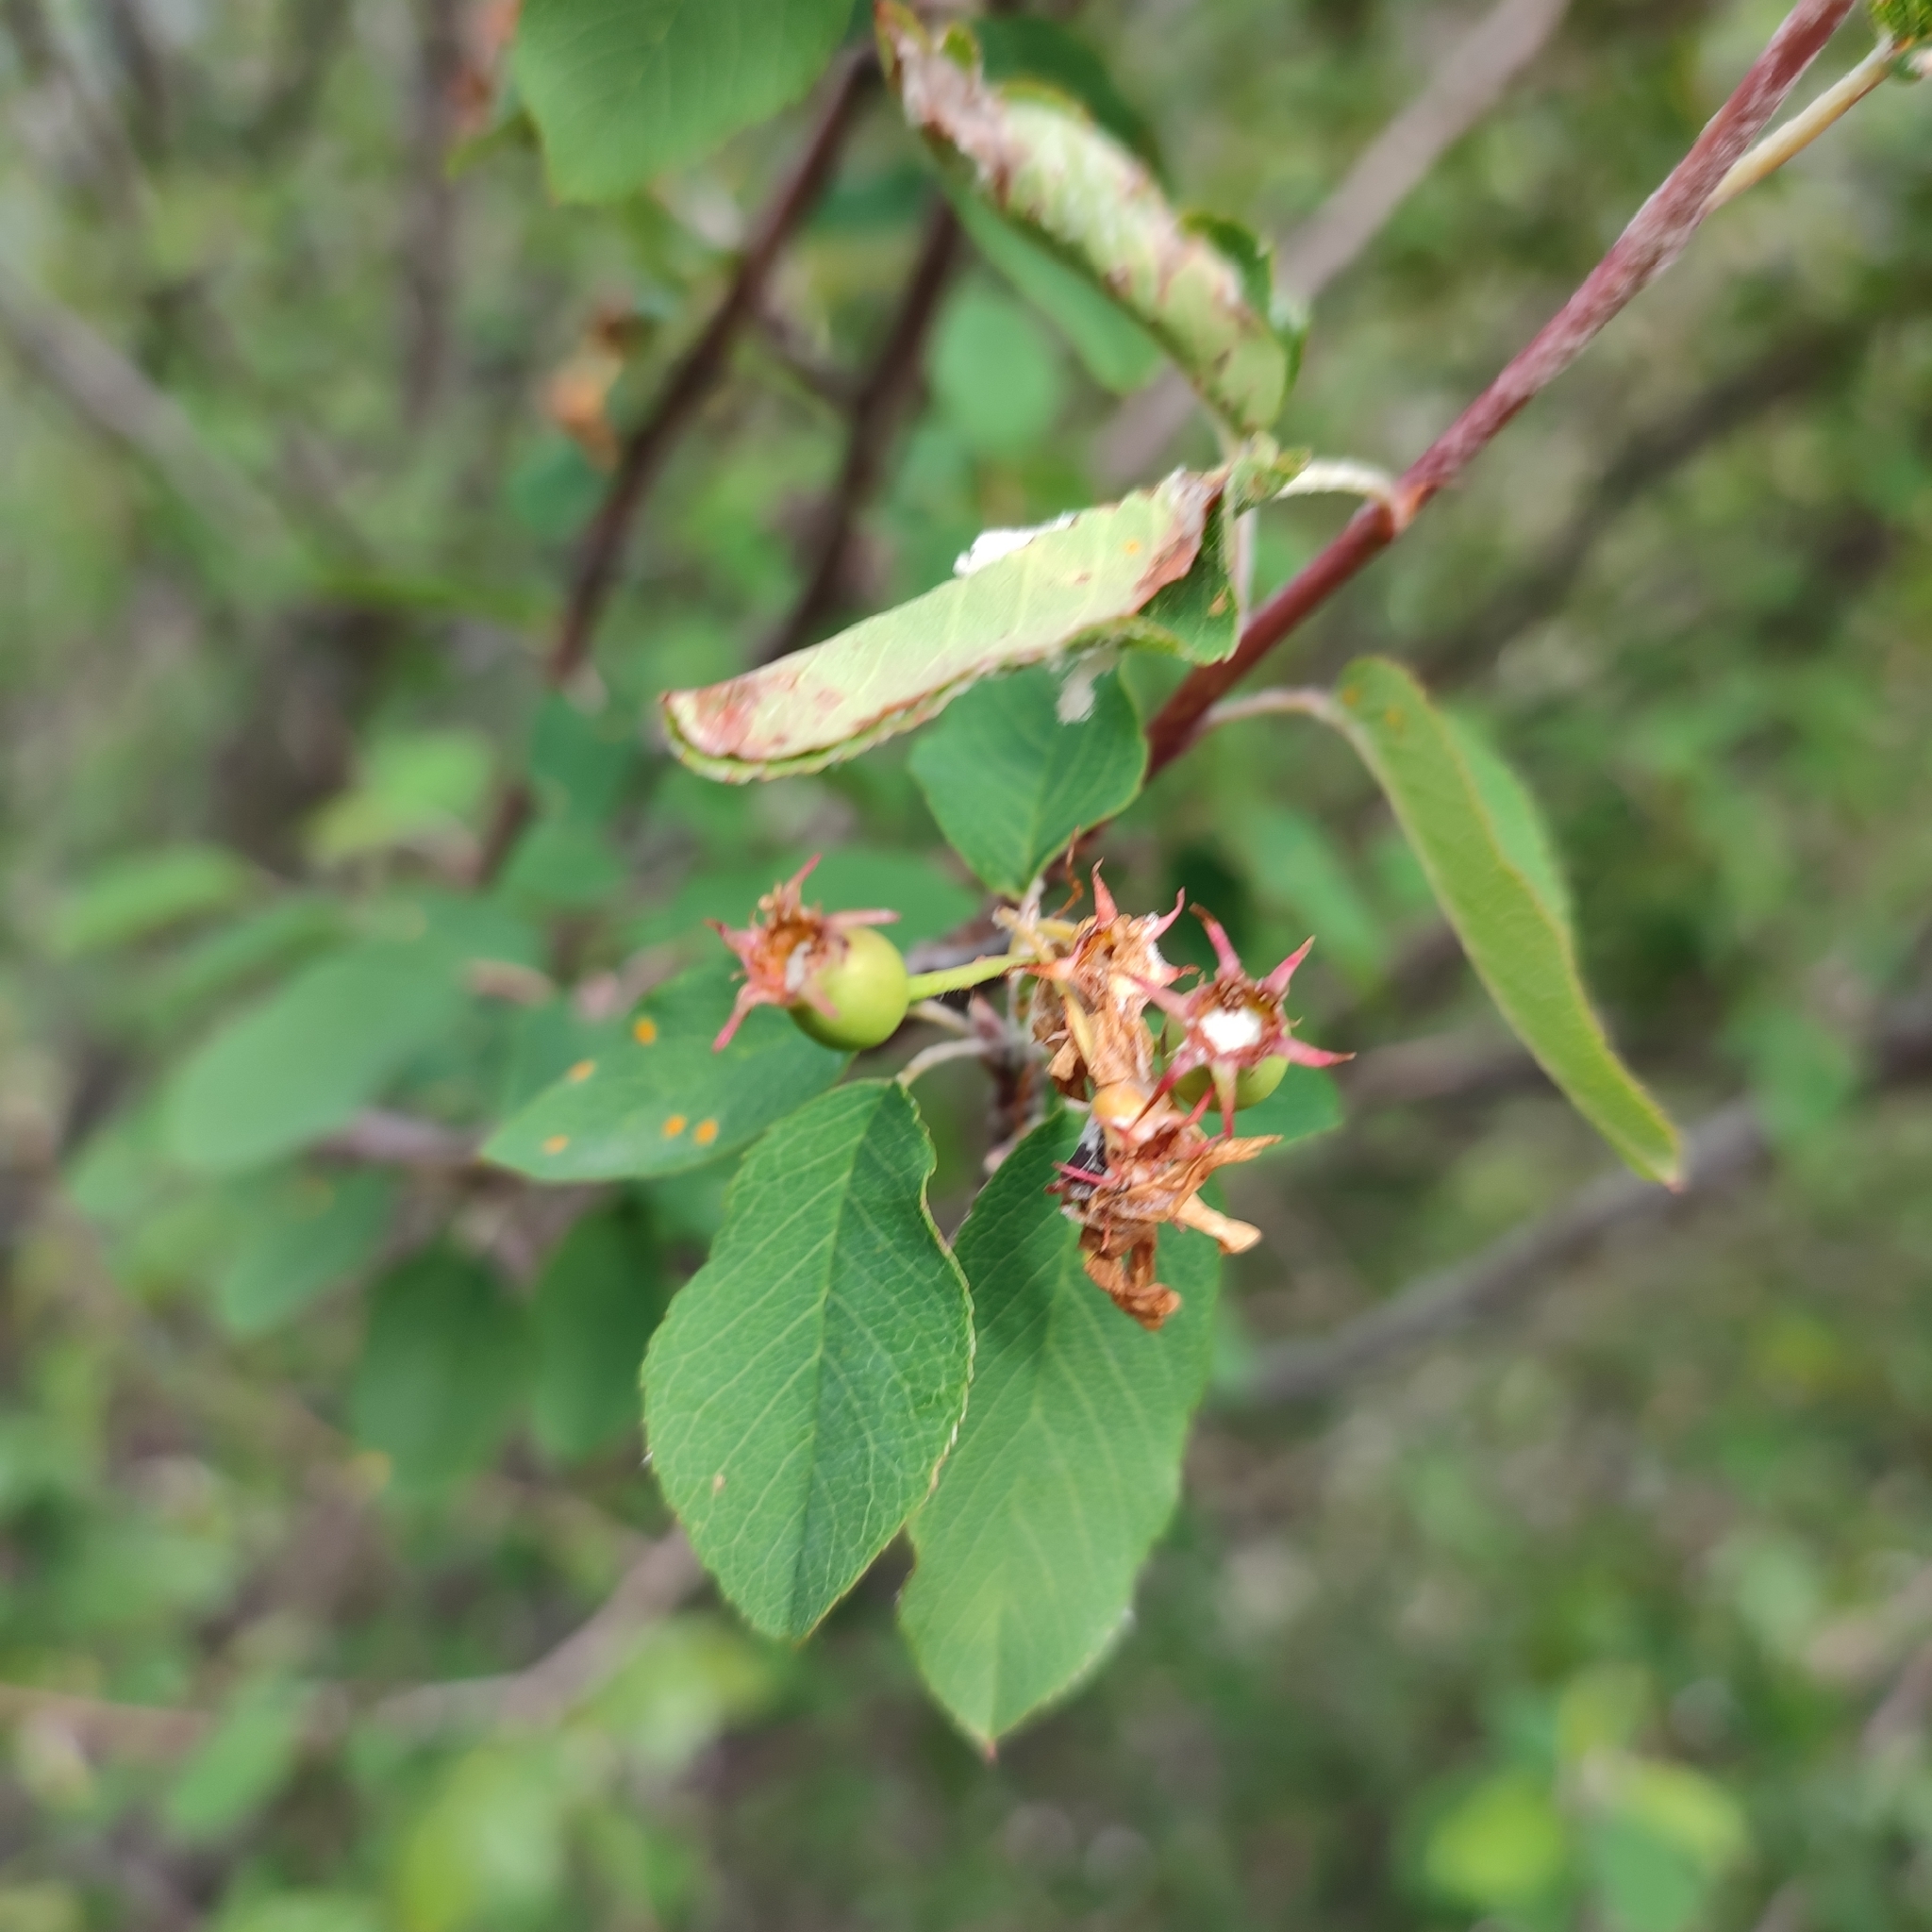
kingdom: Plantae
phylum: Tracheophyta
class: Magnoliopsida
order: Rosales
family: Rosaceae
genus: Amelanchier
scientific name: Amelanchier ovalis
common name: Serviceberry
